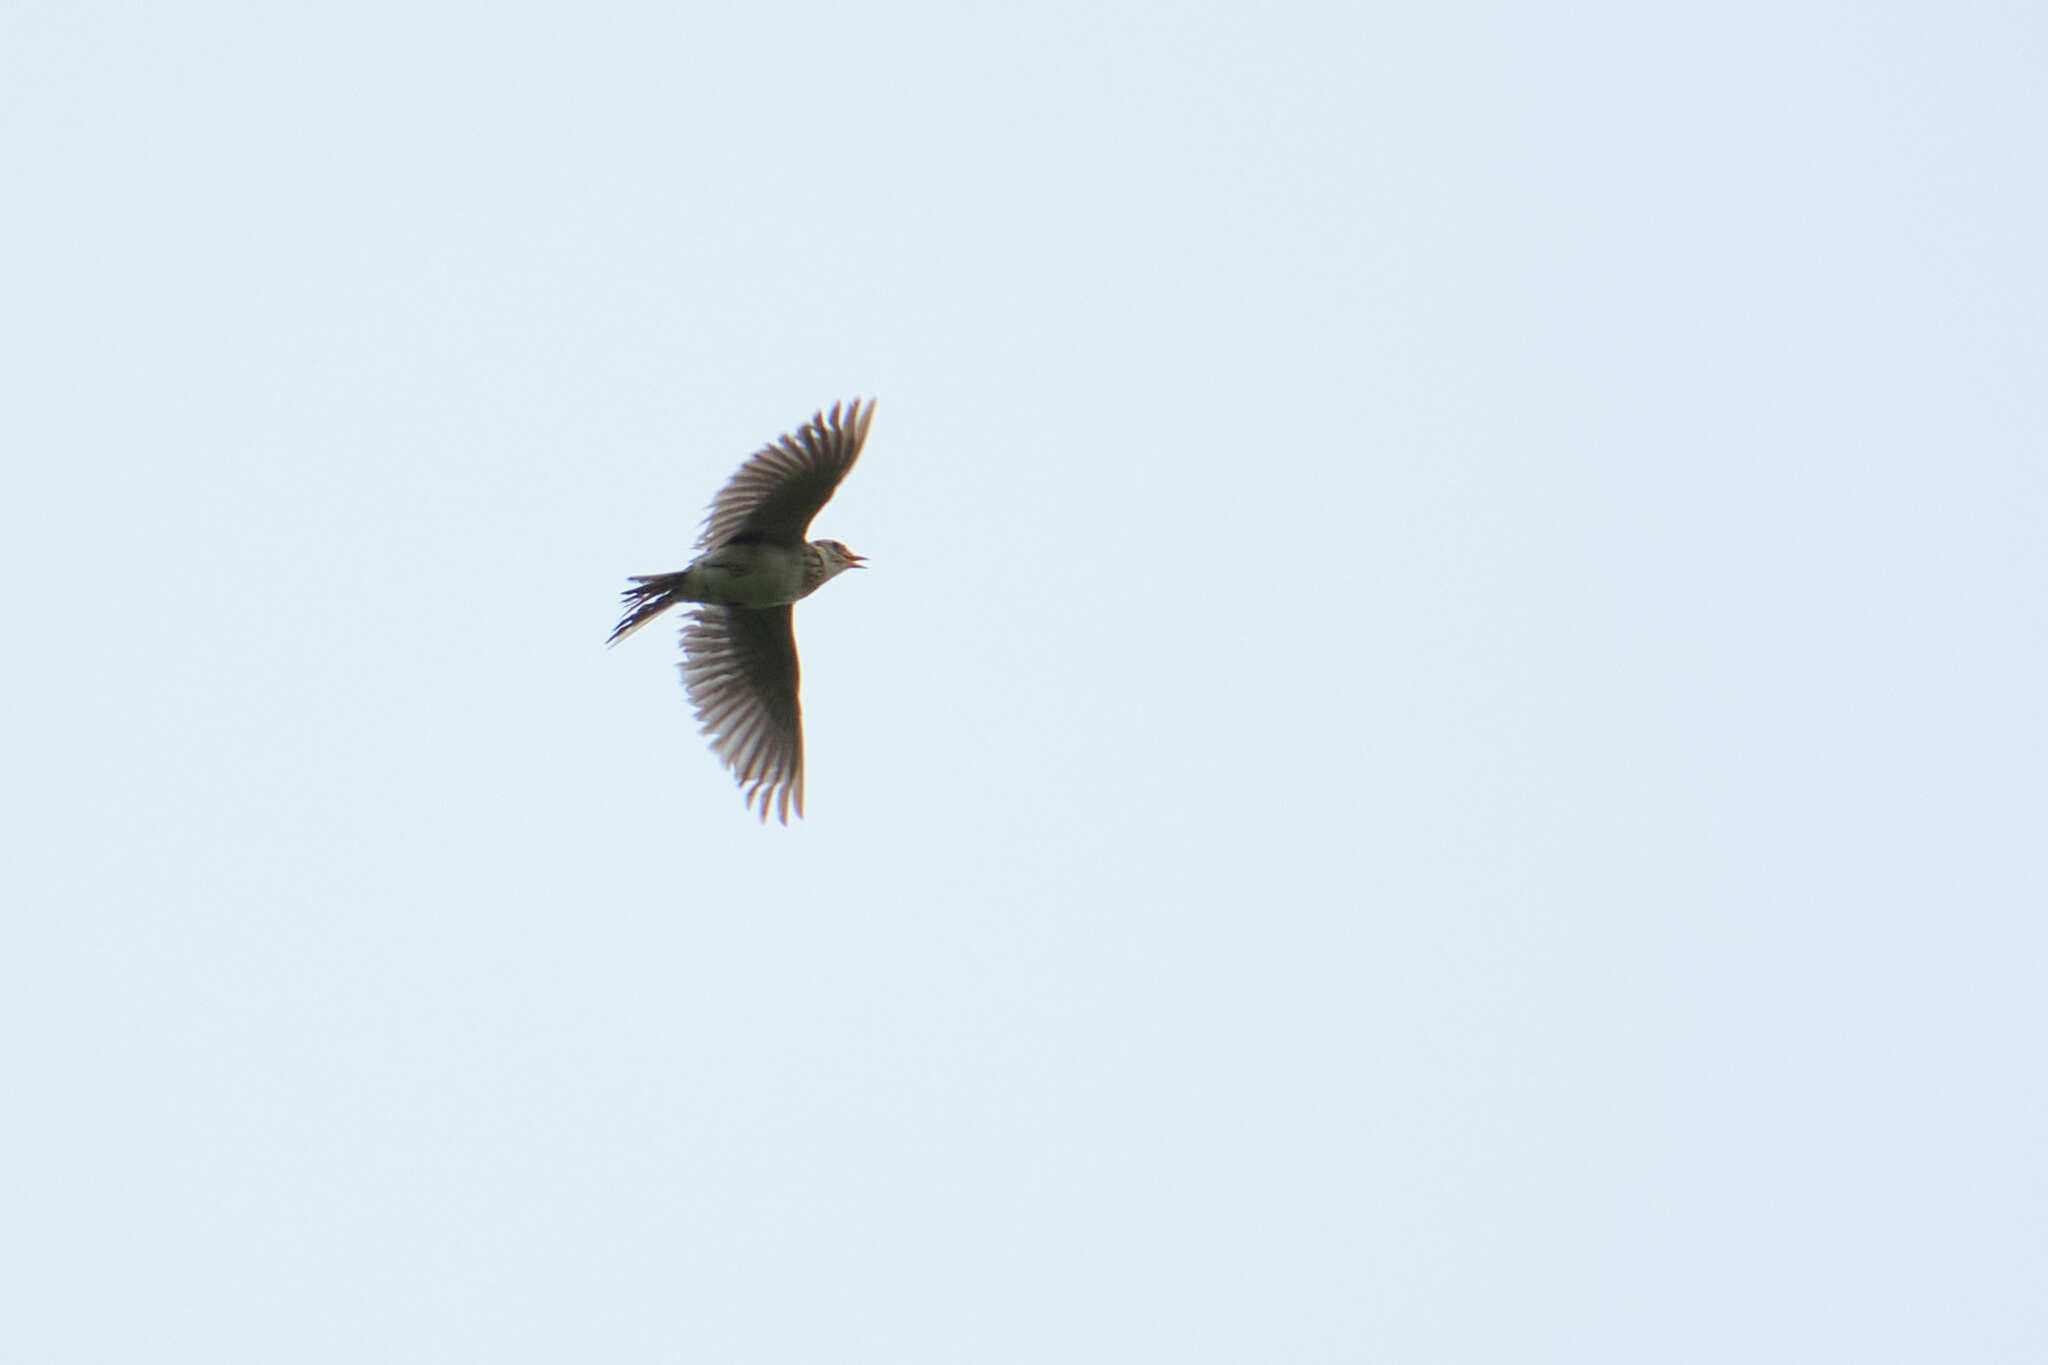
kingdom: Animalia
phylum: Chordata
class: Aves
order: Passeriformes
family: Alaudidae
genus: Alauda
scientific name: Alauda arvensis
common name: Eurasian skylark
